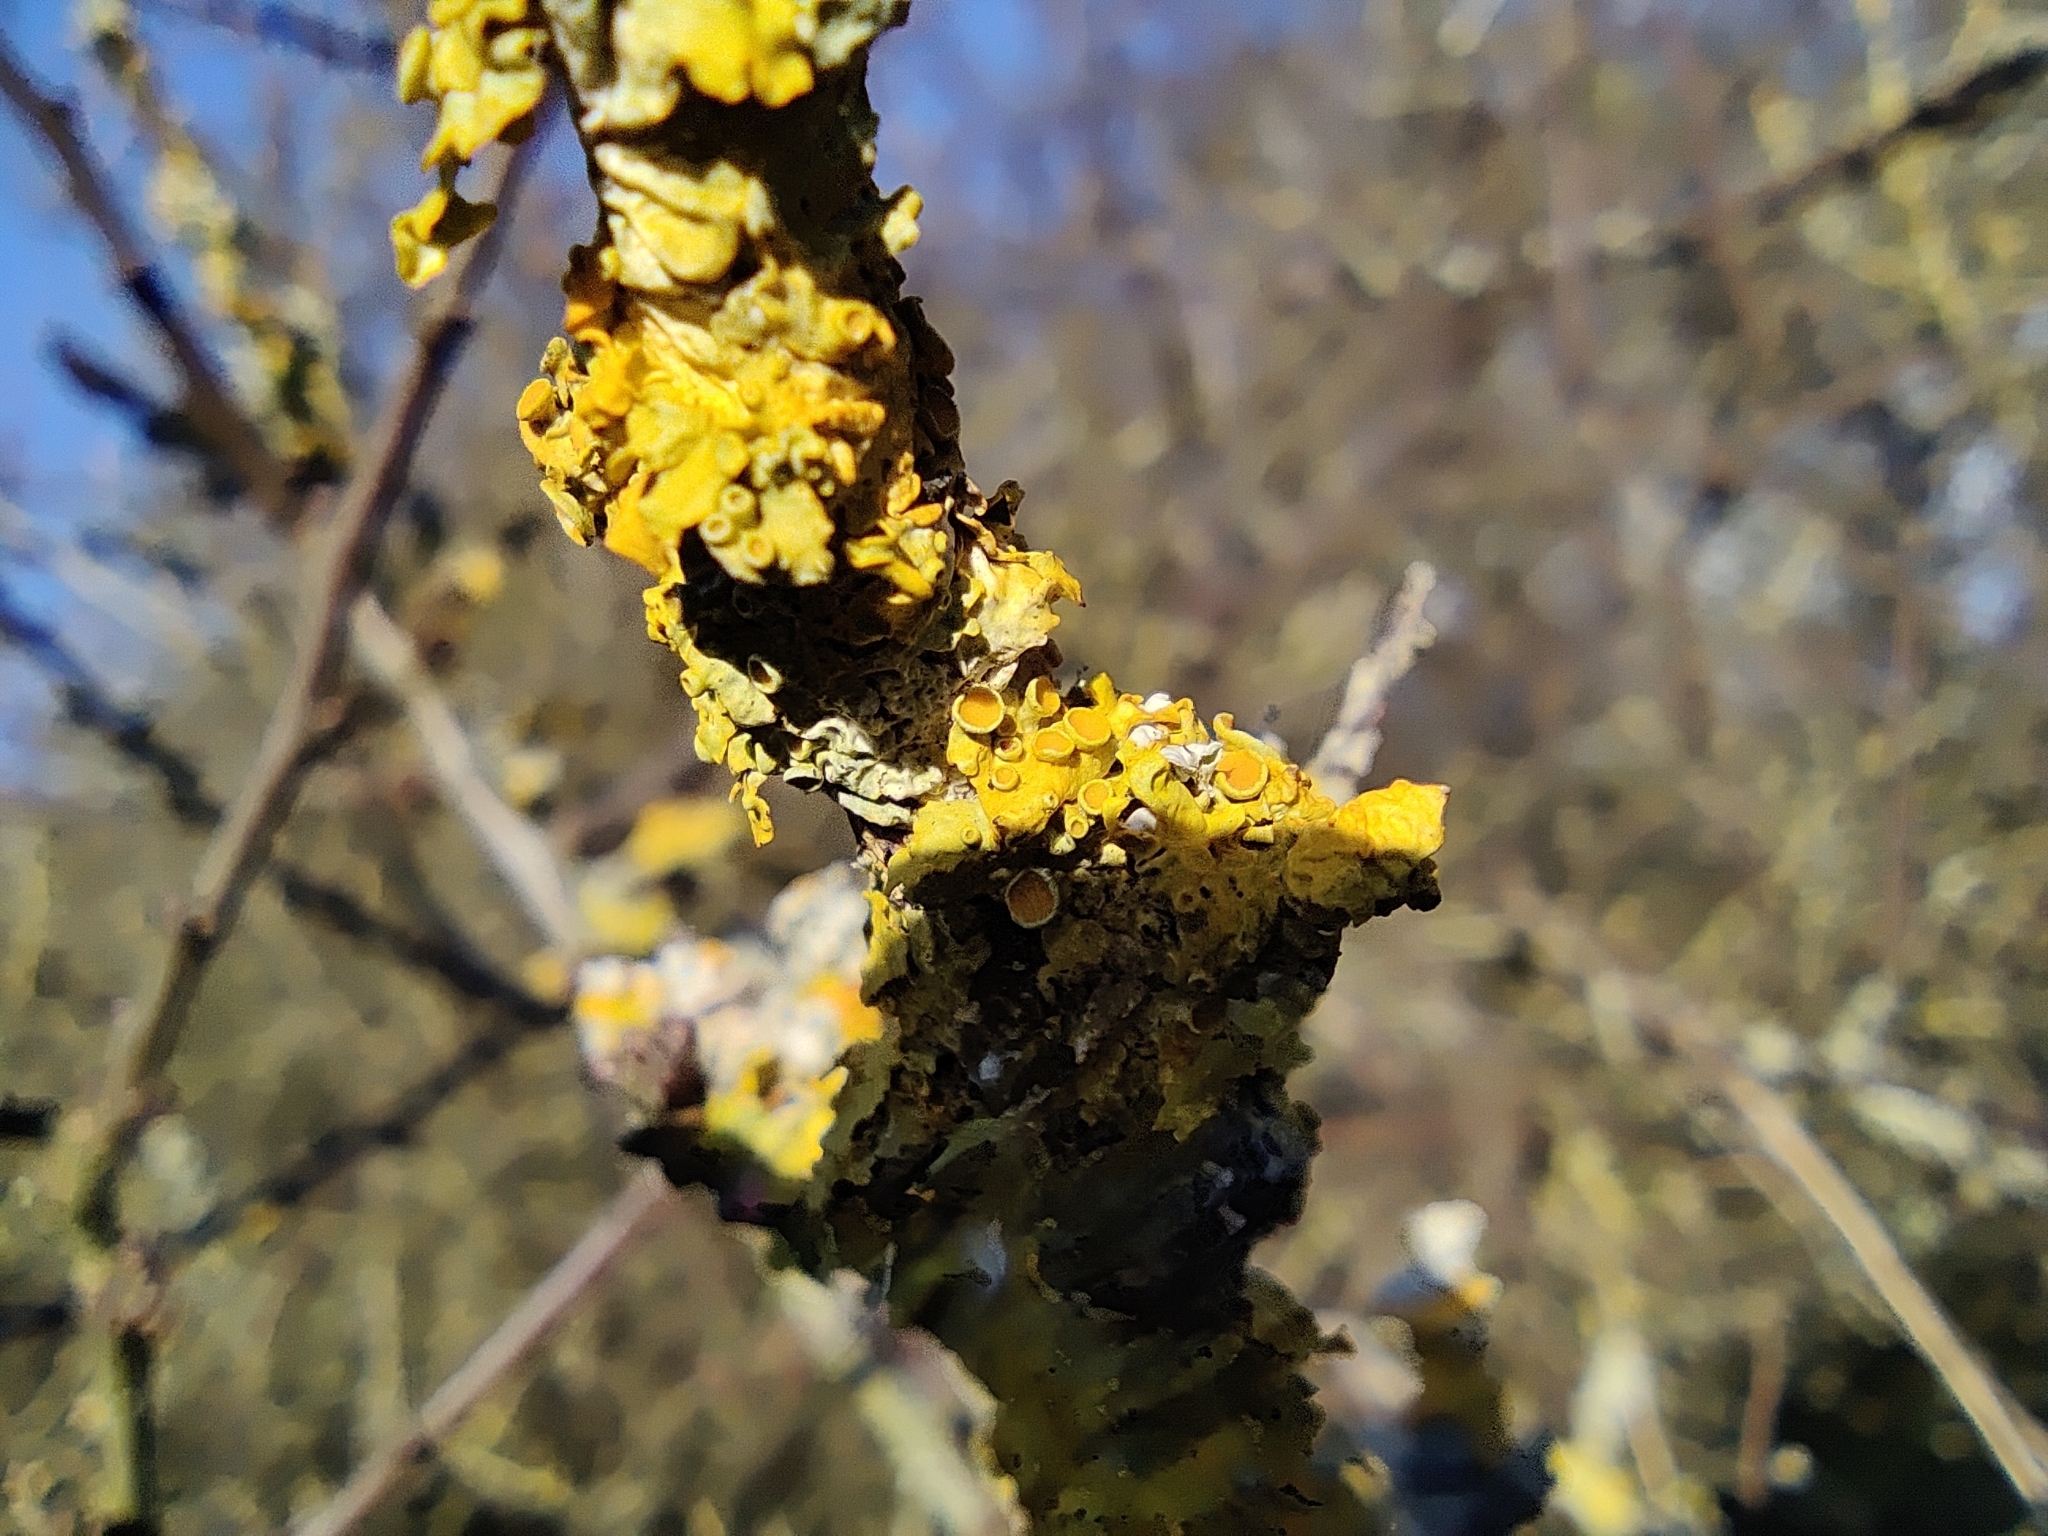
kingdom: Fungi
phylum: Ascomycota
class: Lecanoromycetes
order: Teloschistales
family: Teloschistaceae
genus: Xanthoria
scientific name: Xanthoria parietina
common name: Common orange lichen
